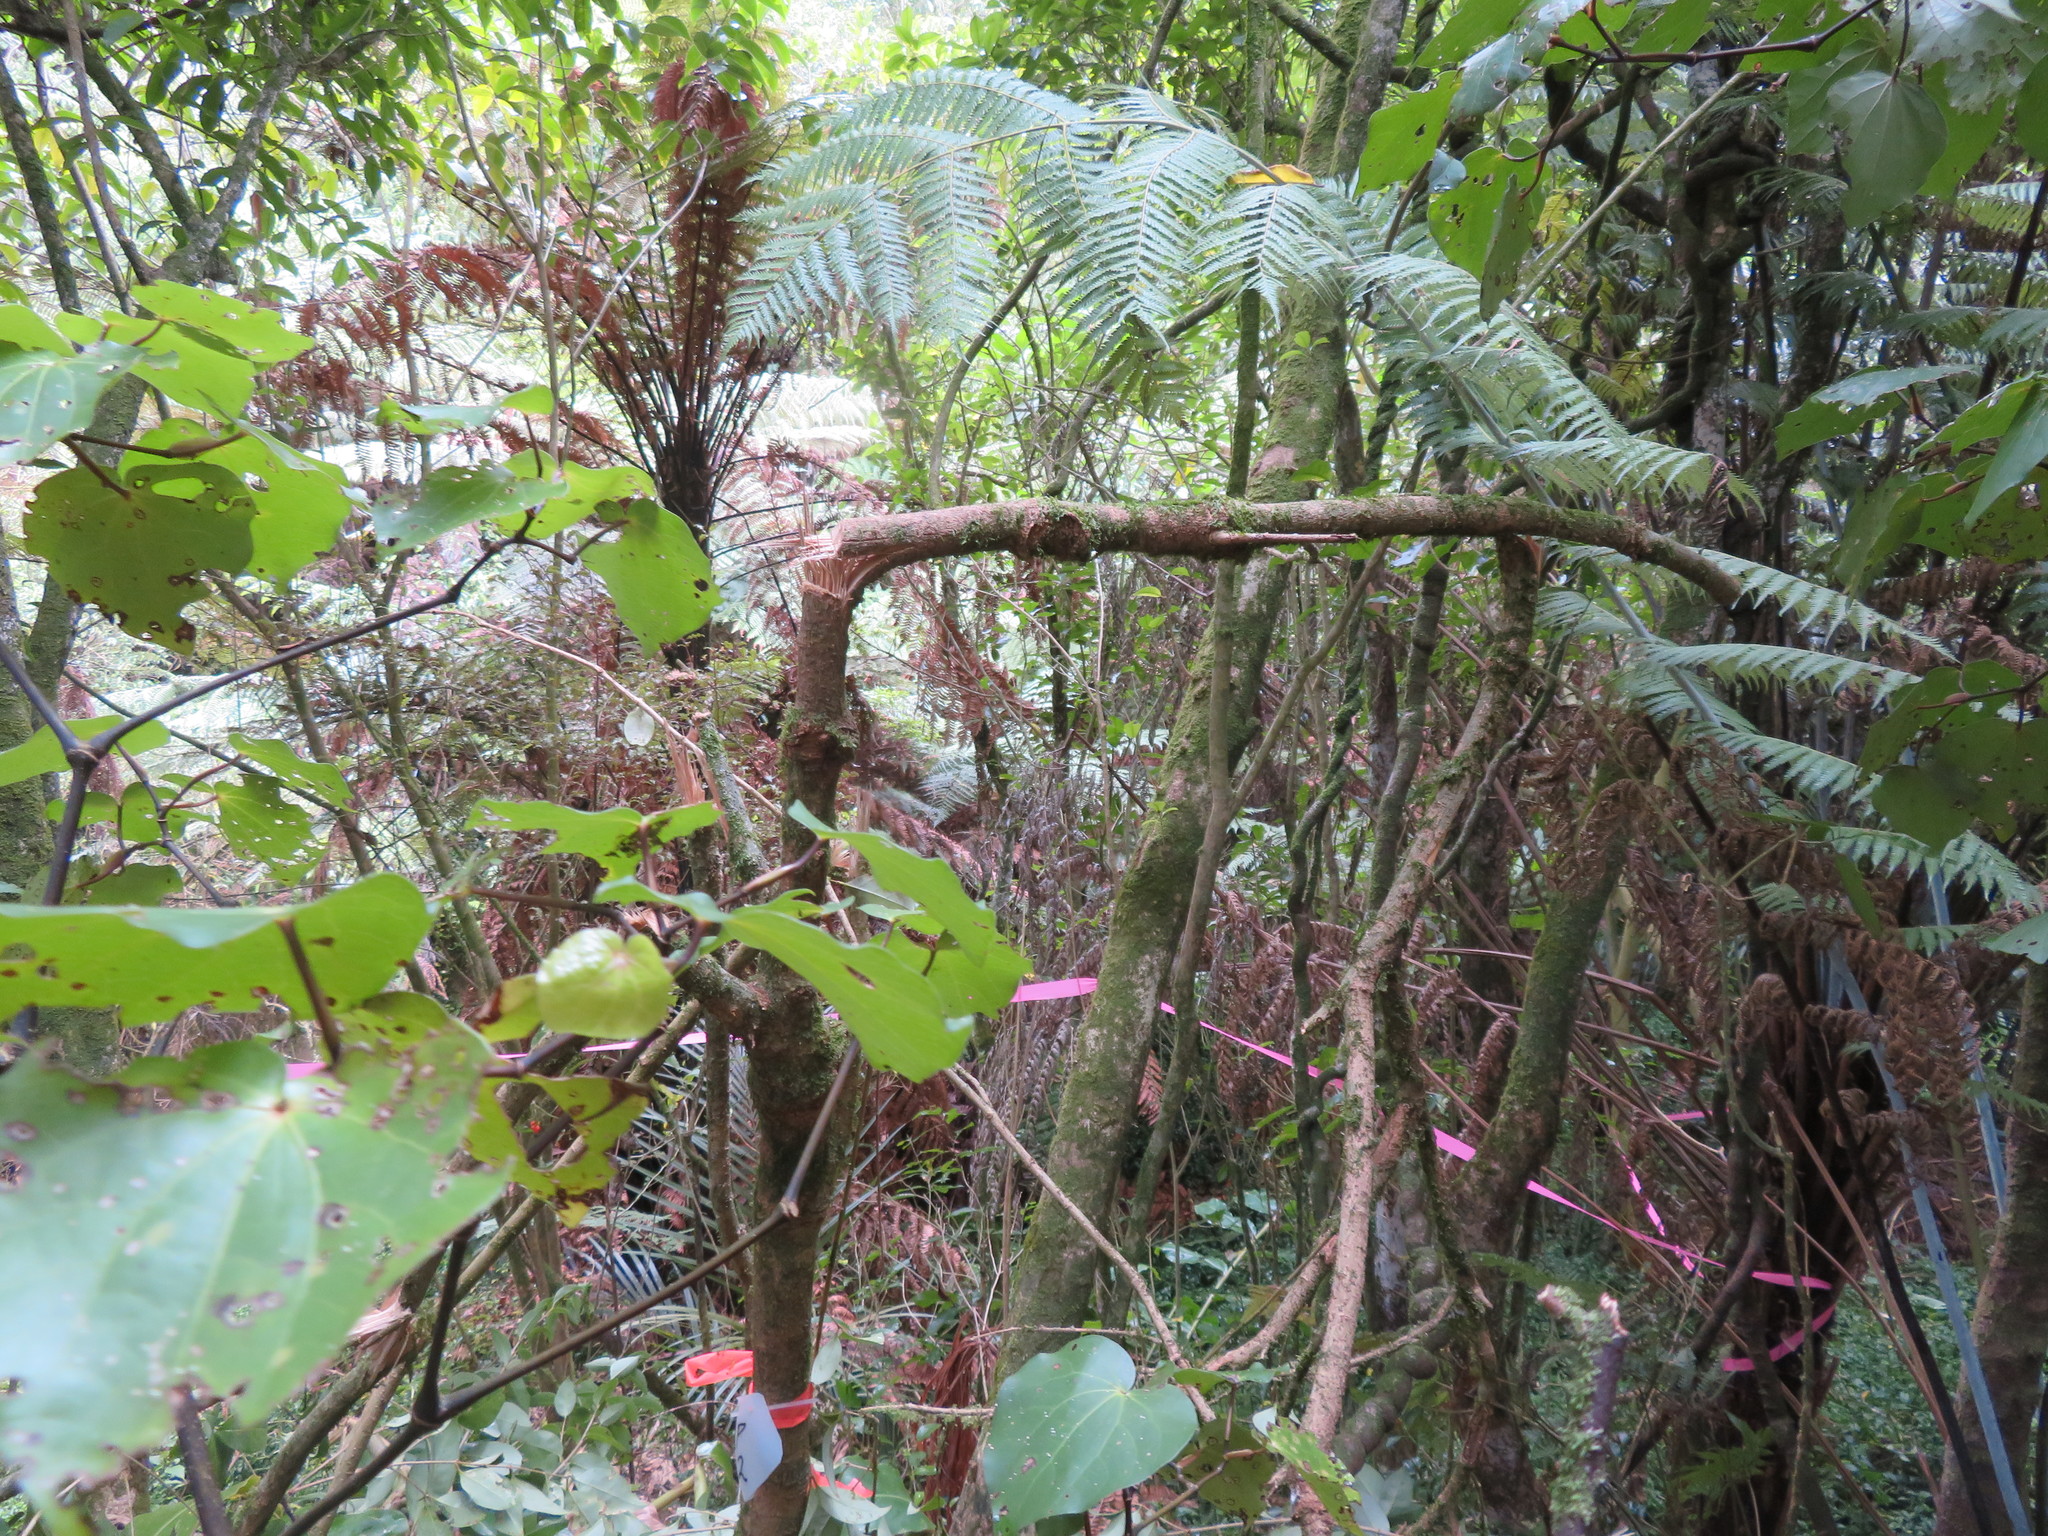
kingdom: Plantae
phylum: Tracheophyta
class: Magnoliopsida
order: Lamiales
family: Oleaceae
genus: Ligustrum
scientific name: Ligustrum lucidum
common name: Glossy privet
